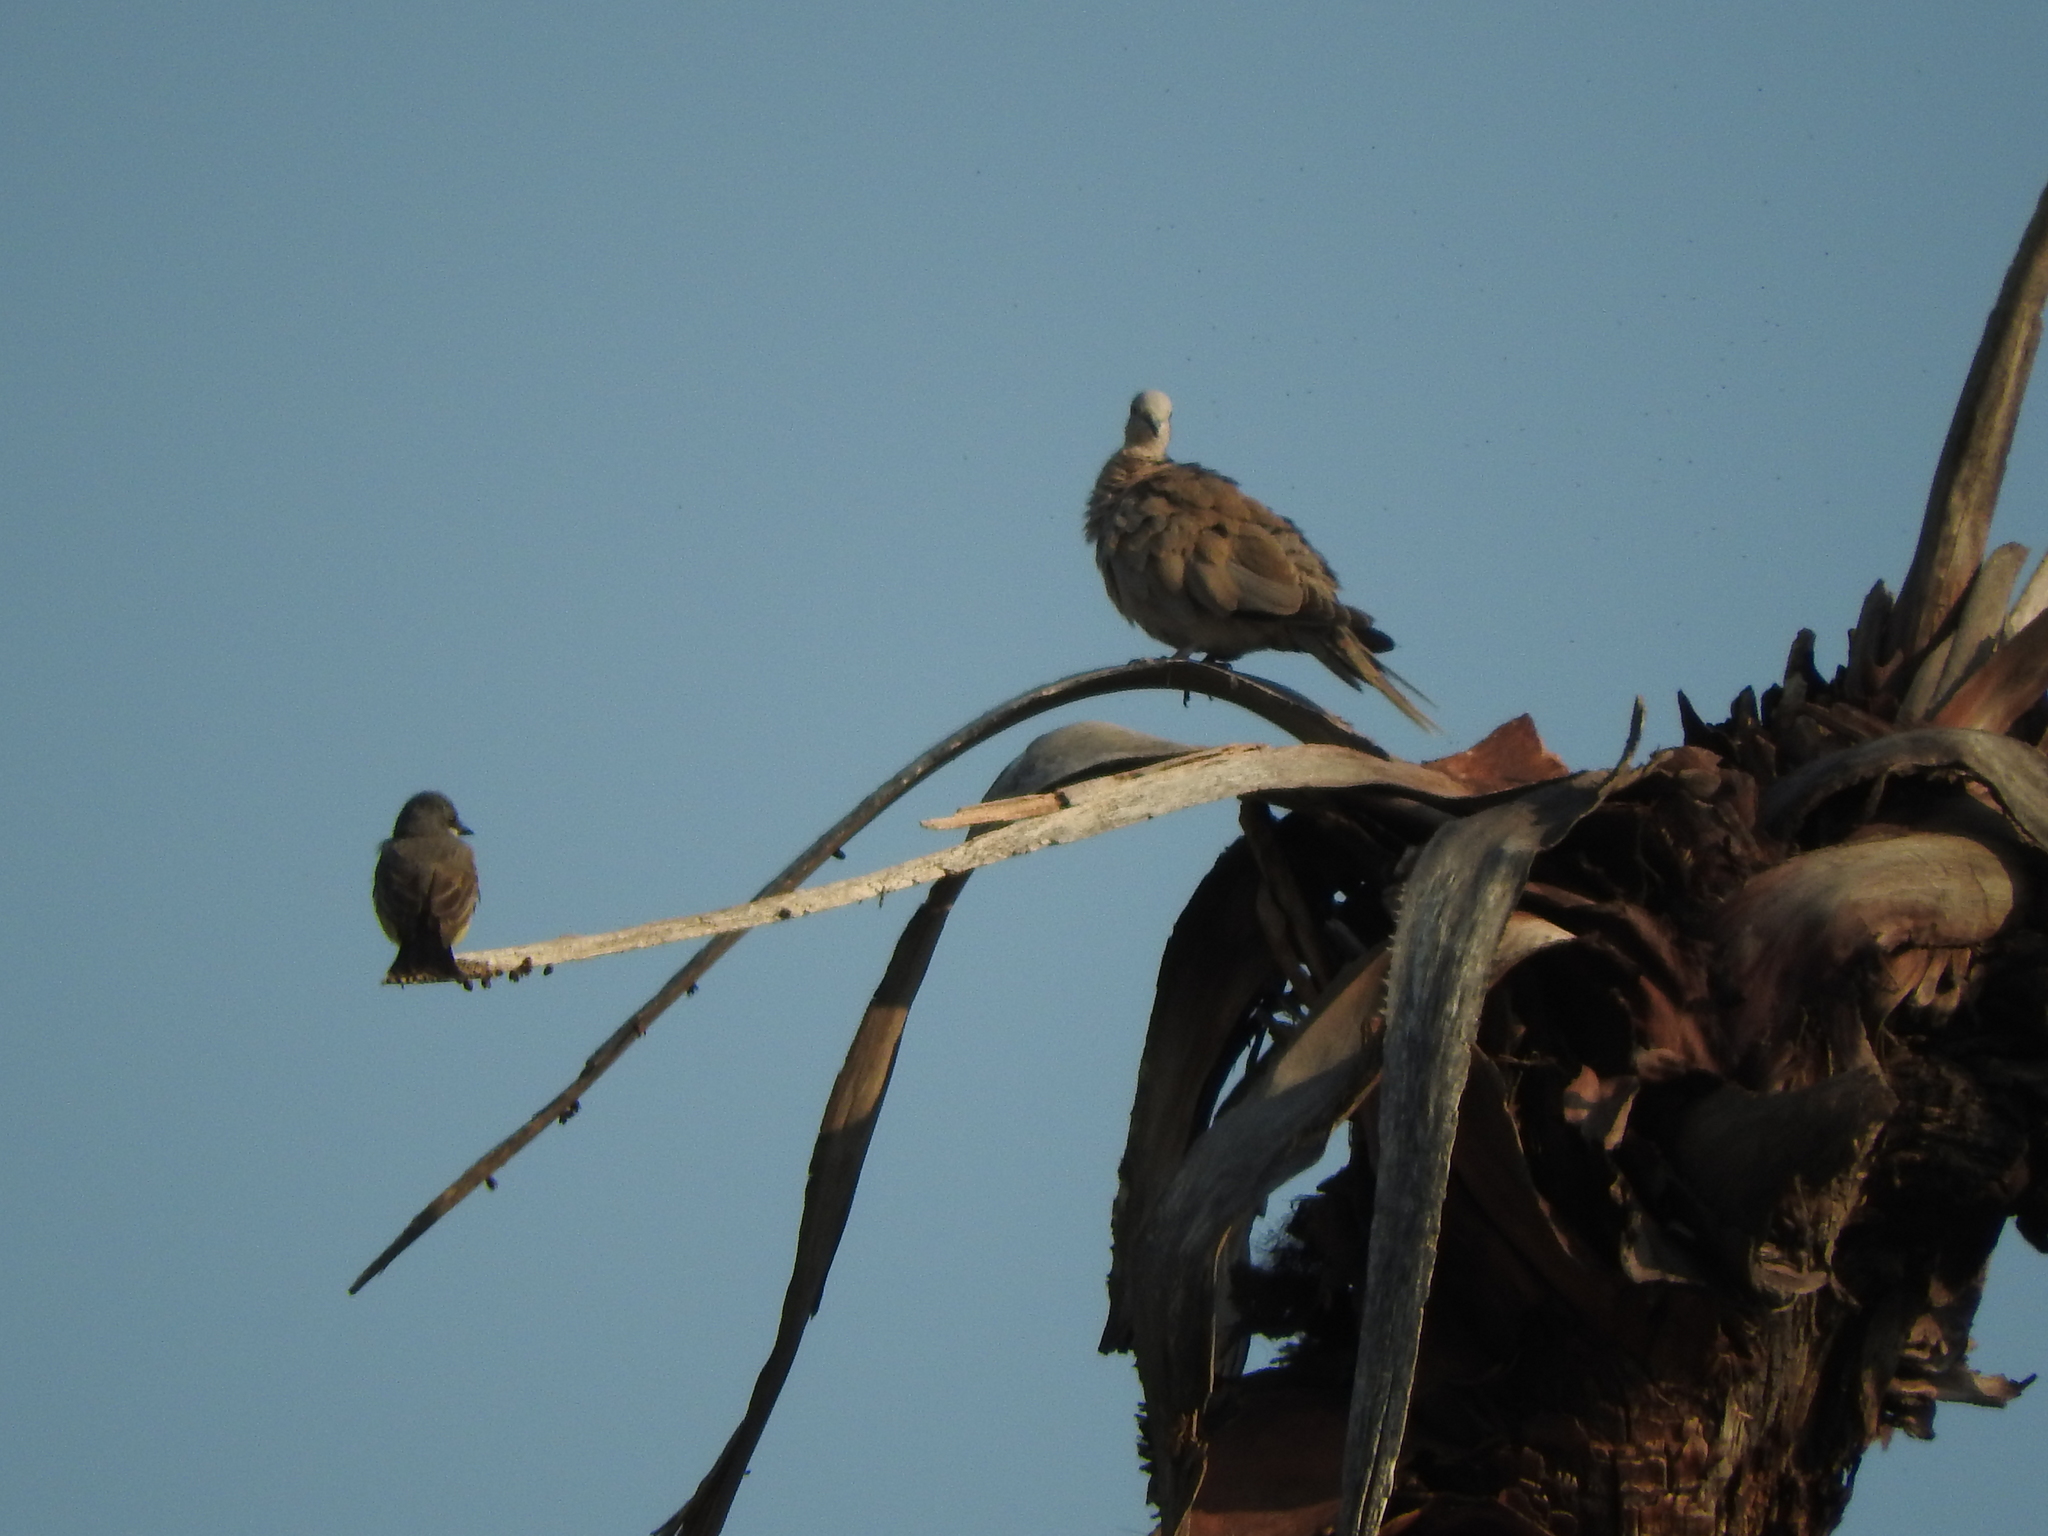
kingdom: Animalia
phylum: Chordata
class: Aves
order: Columbiformes
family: Columbidae
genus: Streptopelia
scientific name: Streptopelia decaocto
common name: Eurasian collared dove
